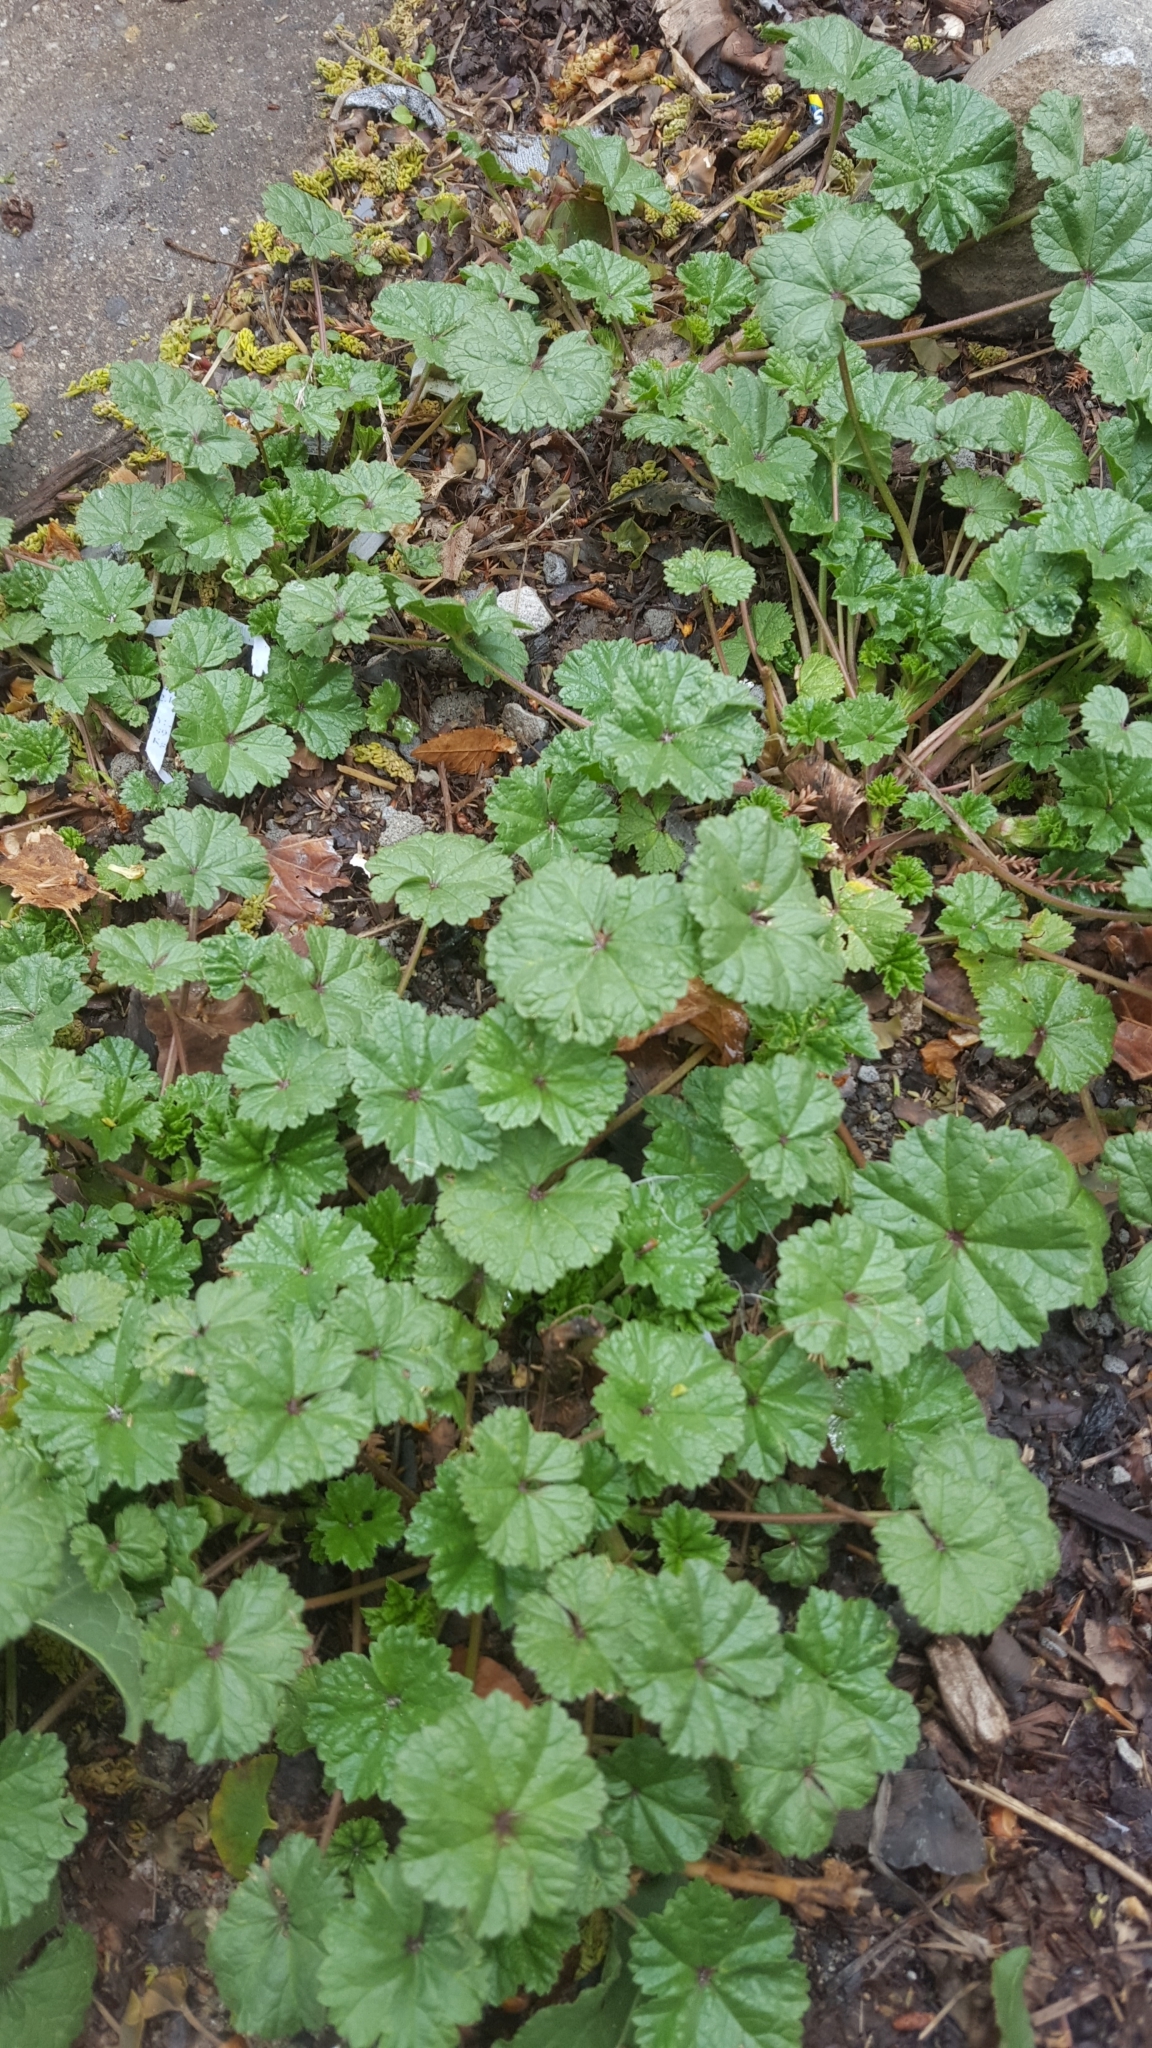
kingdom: Plantae
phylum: Tracheophyta
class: Magnoliopsida
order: Malvales
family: Malvaceae
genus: Malva
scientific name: Malva neglecta
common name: Common mallow
